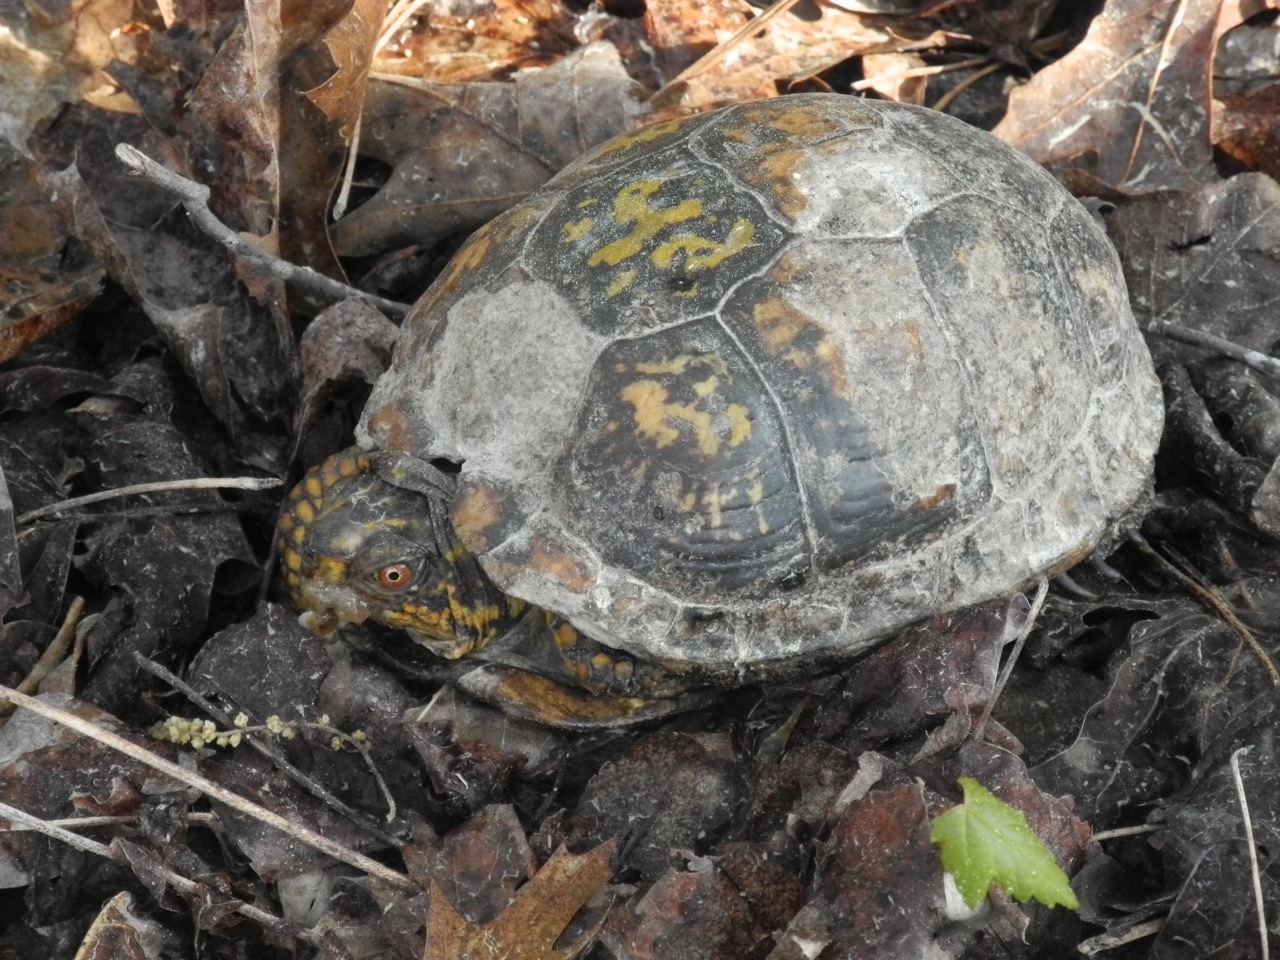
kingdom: Animalia
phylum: Chordata
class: Testudines
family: Emydidae
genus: Terrapene
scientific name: Terrapene carolina
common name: Common box turtle
